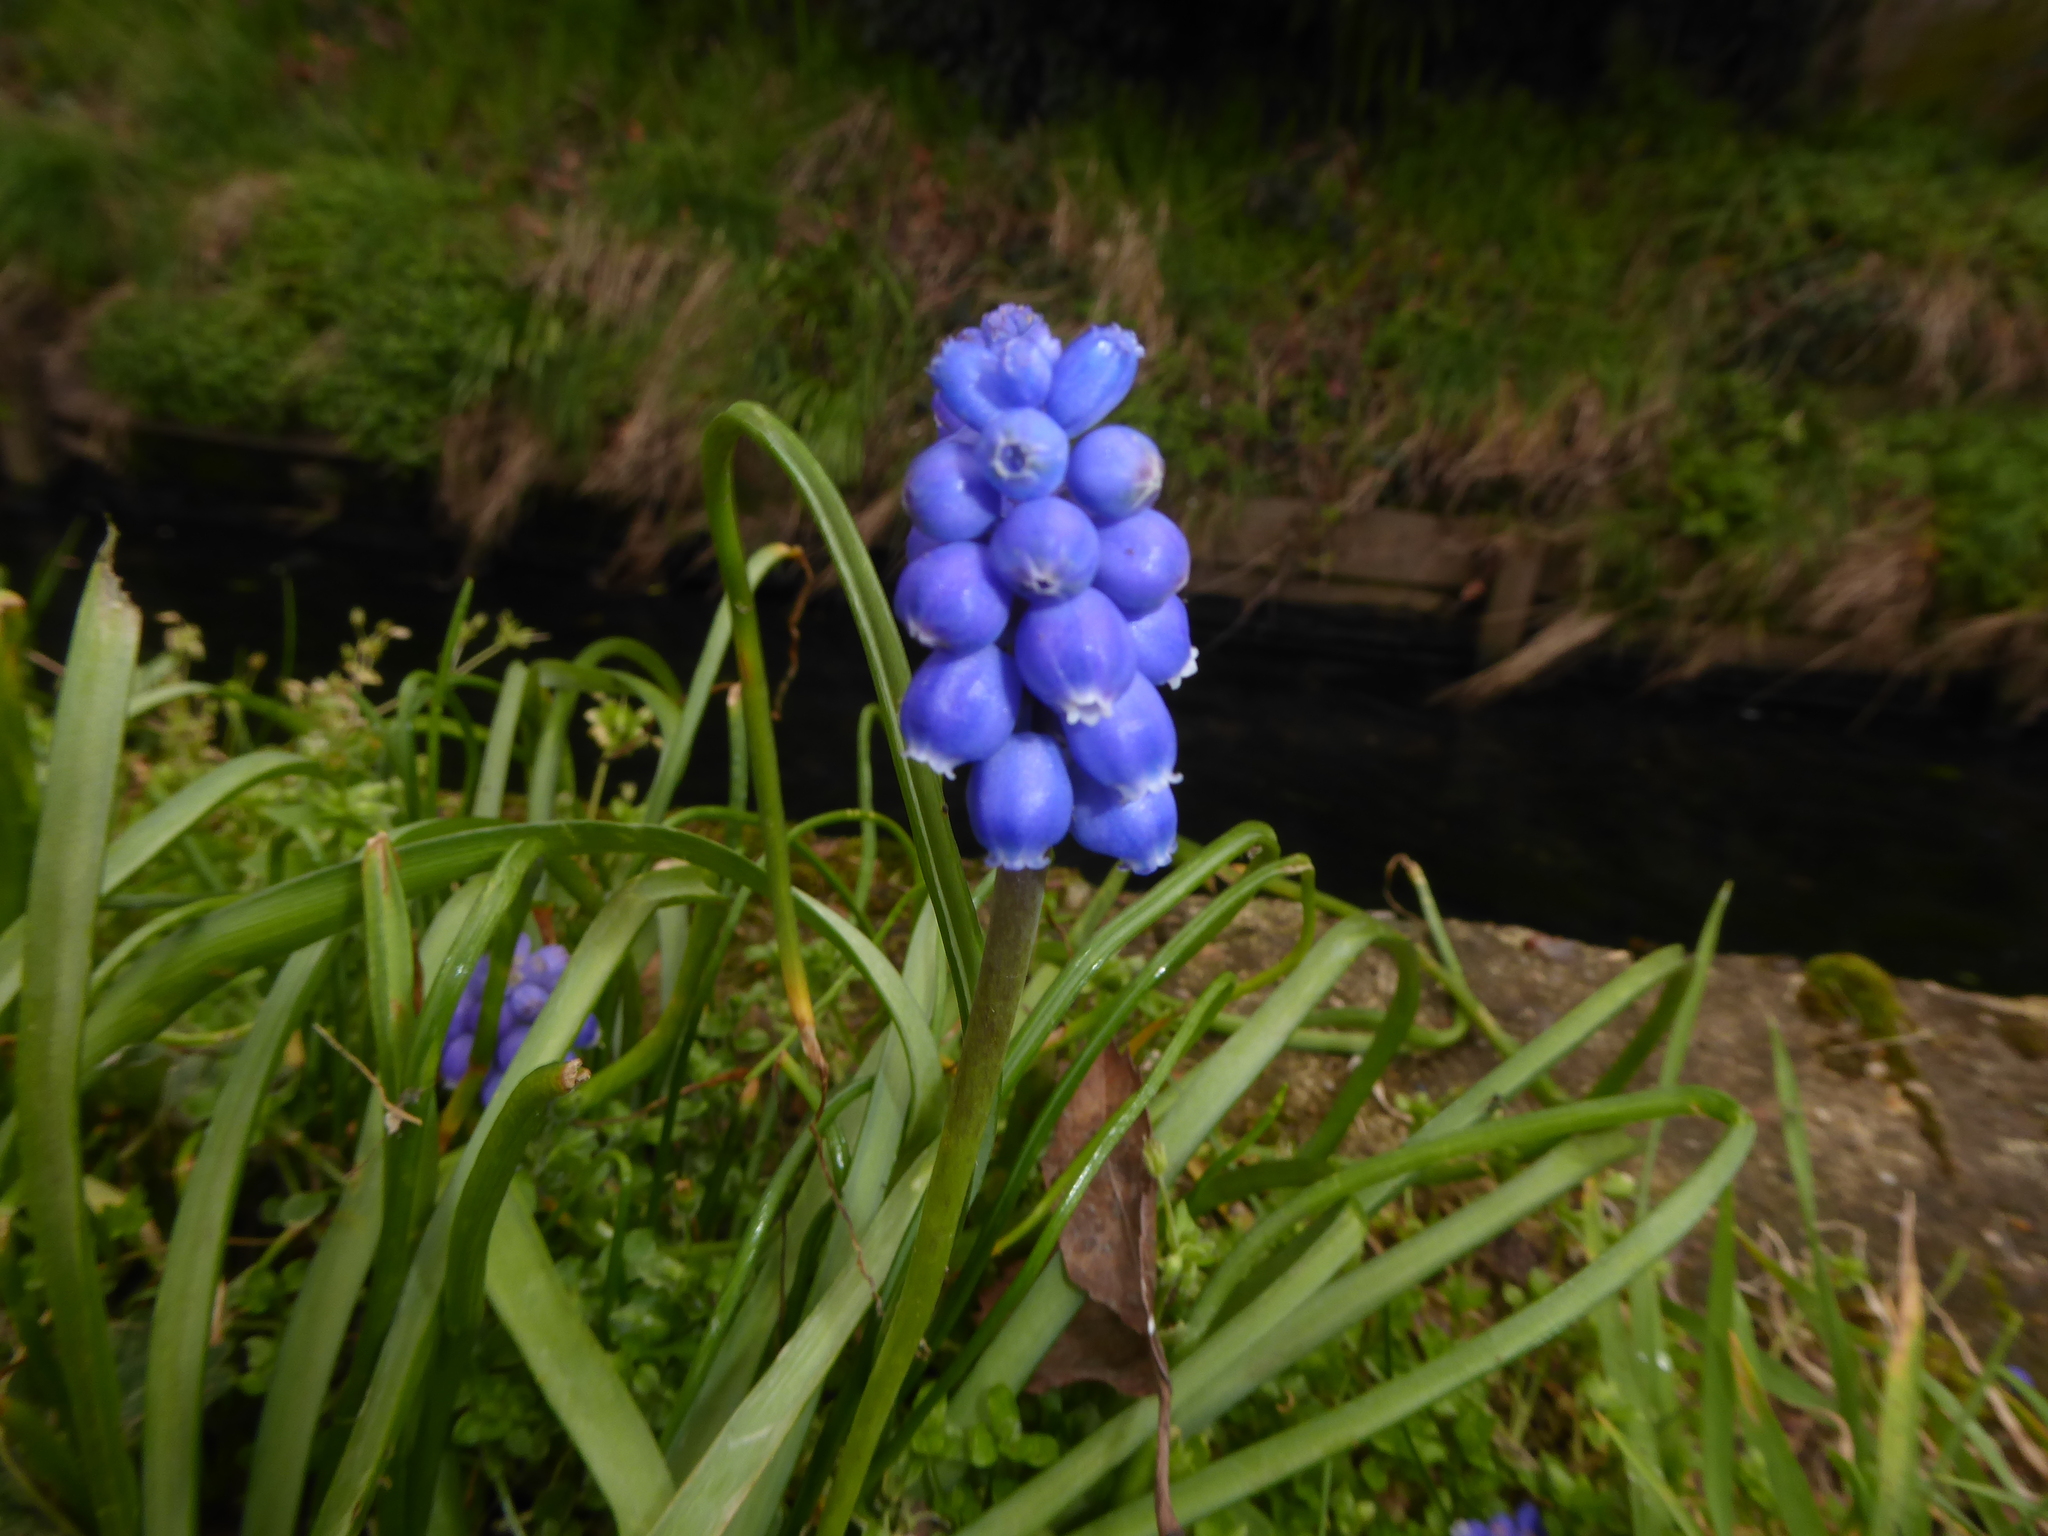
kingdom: Plantae
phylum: Tracheophyta
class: Liliopsida
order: Asparagales
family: Asparagaceae
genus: Muscari
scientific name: Muscari armeniacum
